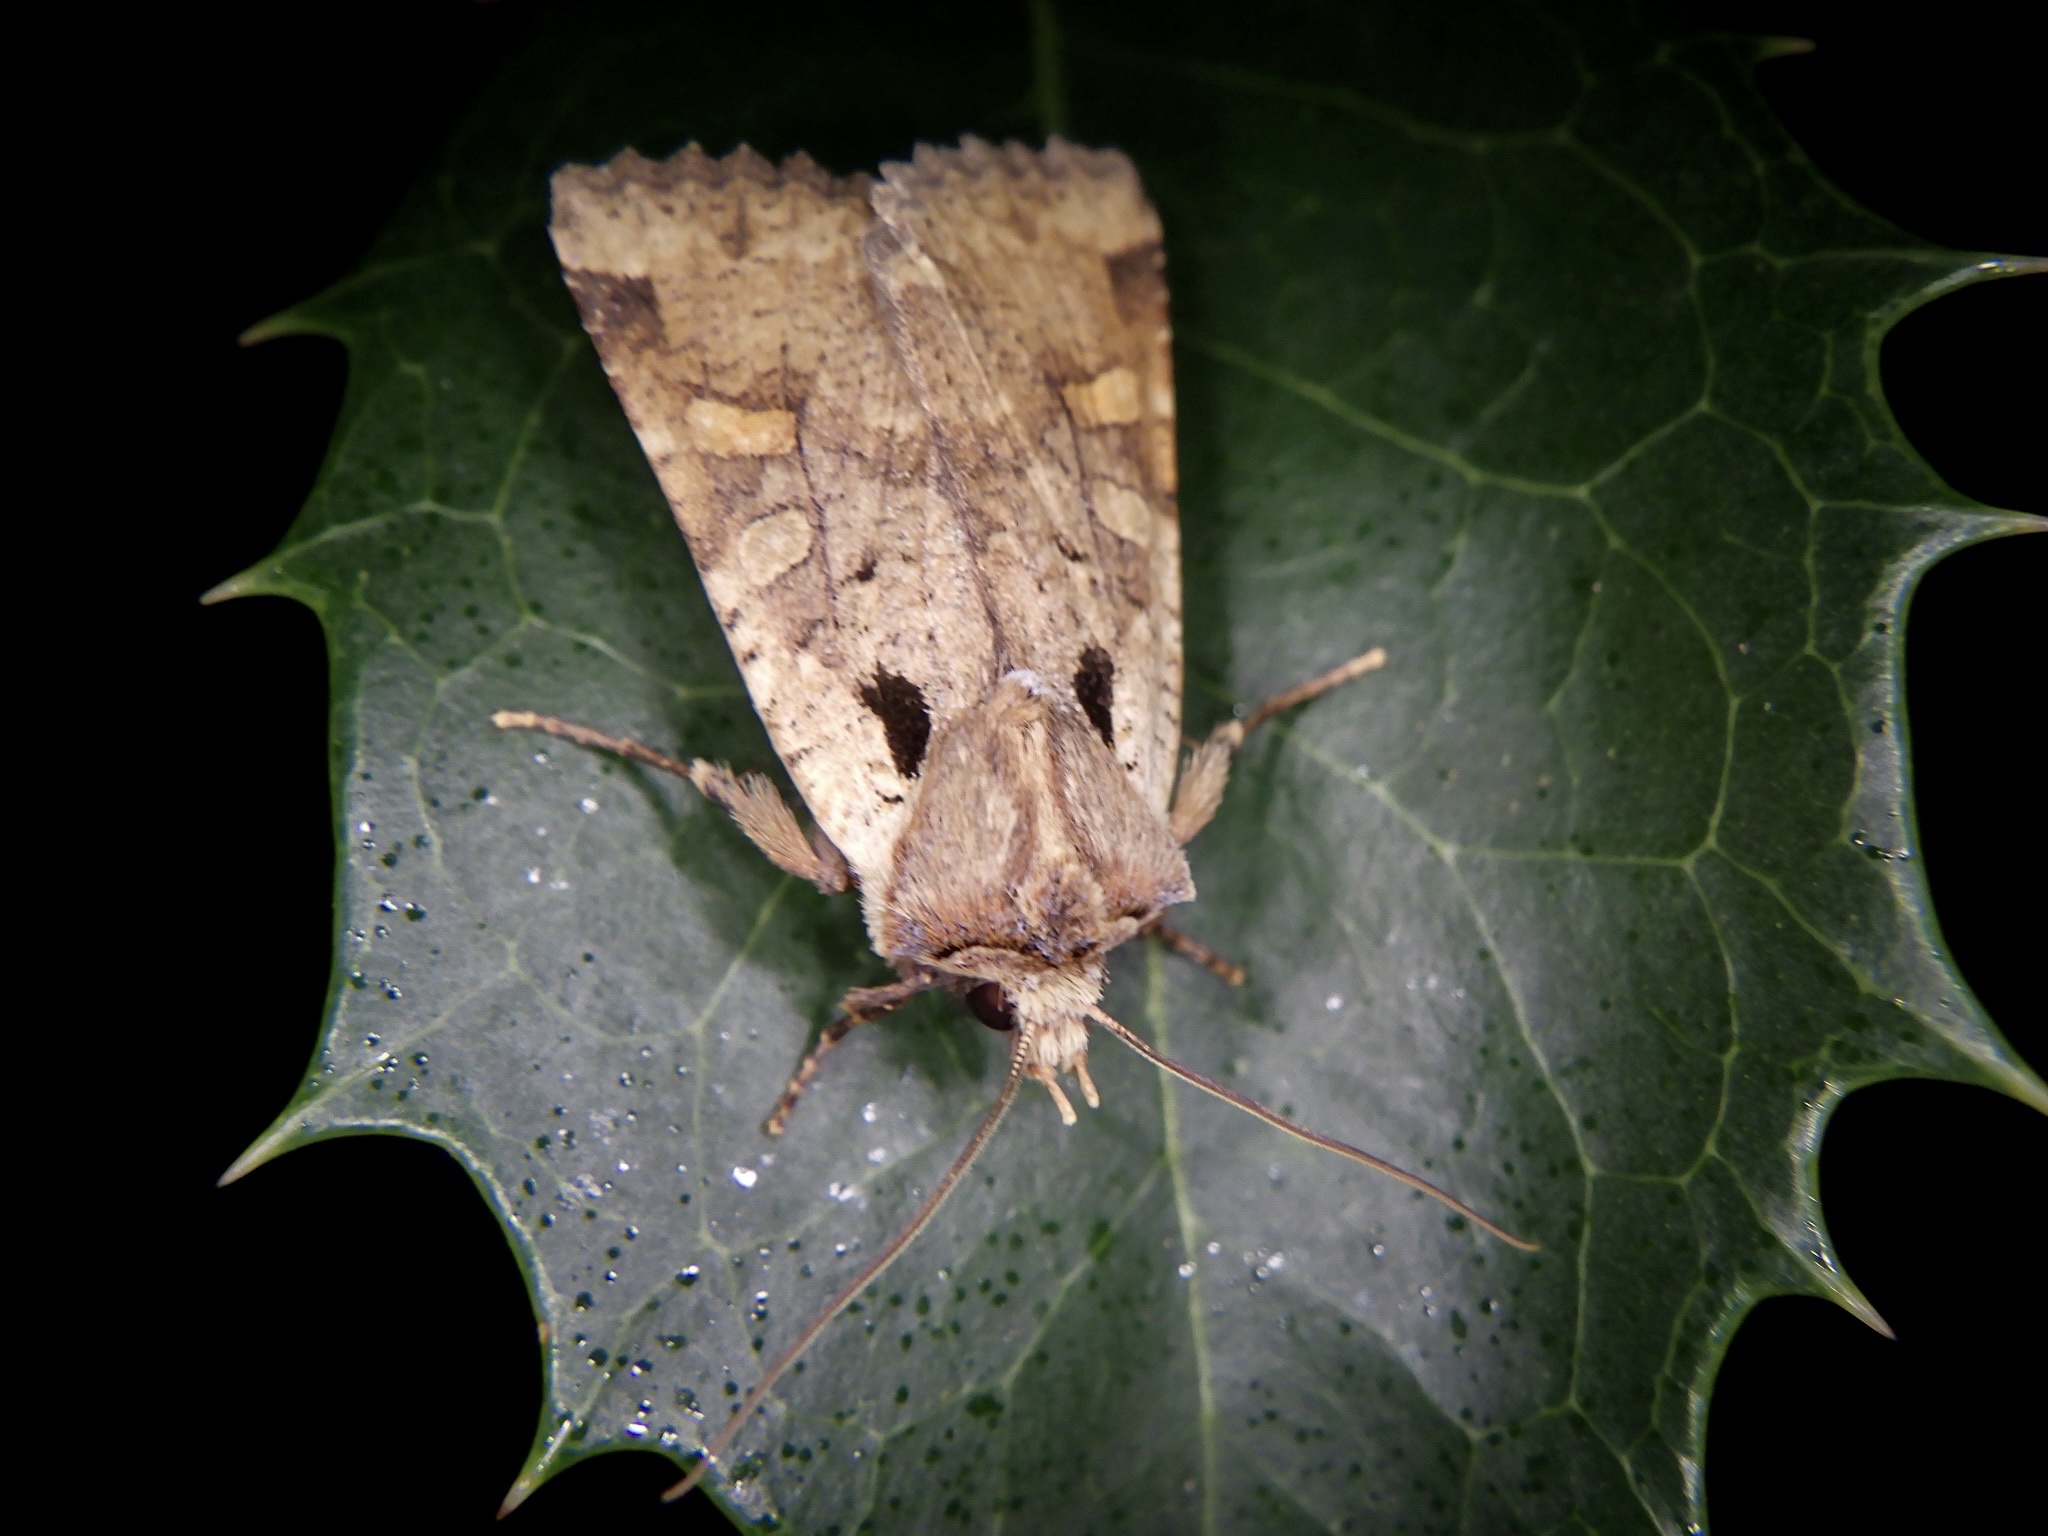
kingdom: Animalia
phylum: Arthropoda
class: Insecta
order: Lepidoptera
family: Noctuidae
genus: Rhynchaglaea
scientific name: Rhynchaglaea scitula
